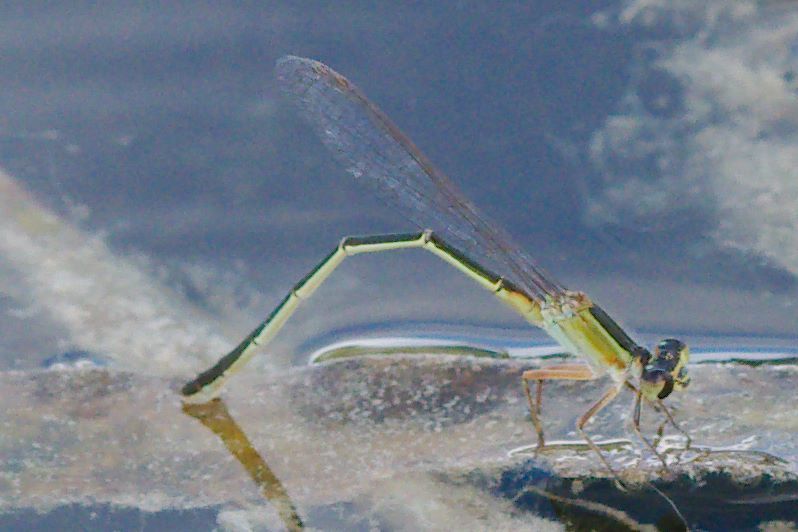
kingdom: Animalia
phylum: Arthropoda
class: Insecta
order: Odonata
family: Coenagrionidae
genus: Ischnura
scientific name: Ischnura ramburii
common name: Rambur's forktail
